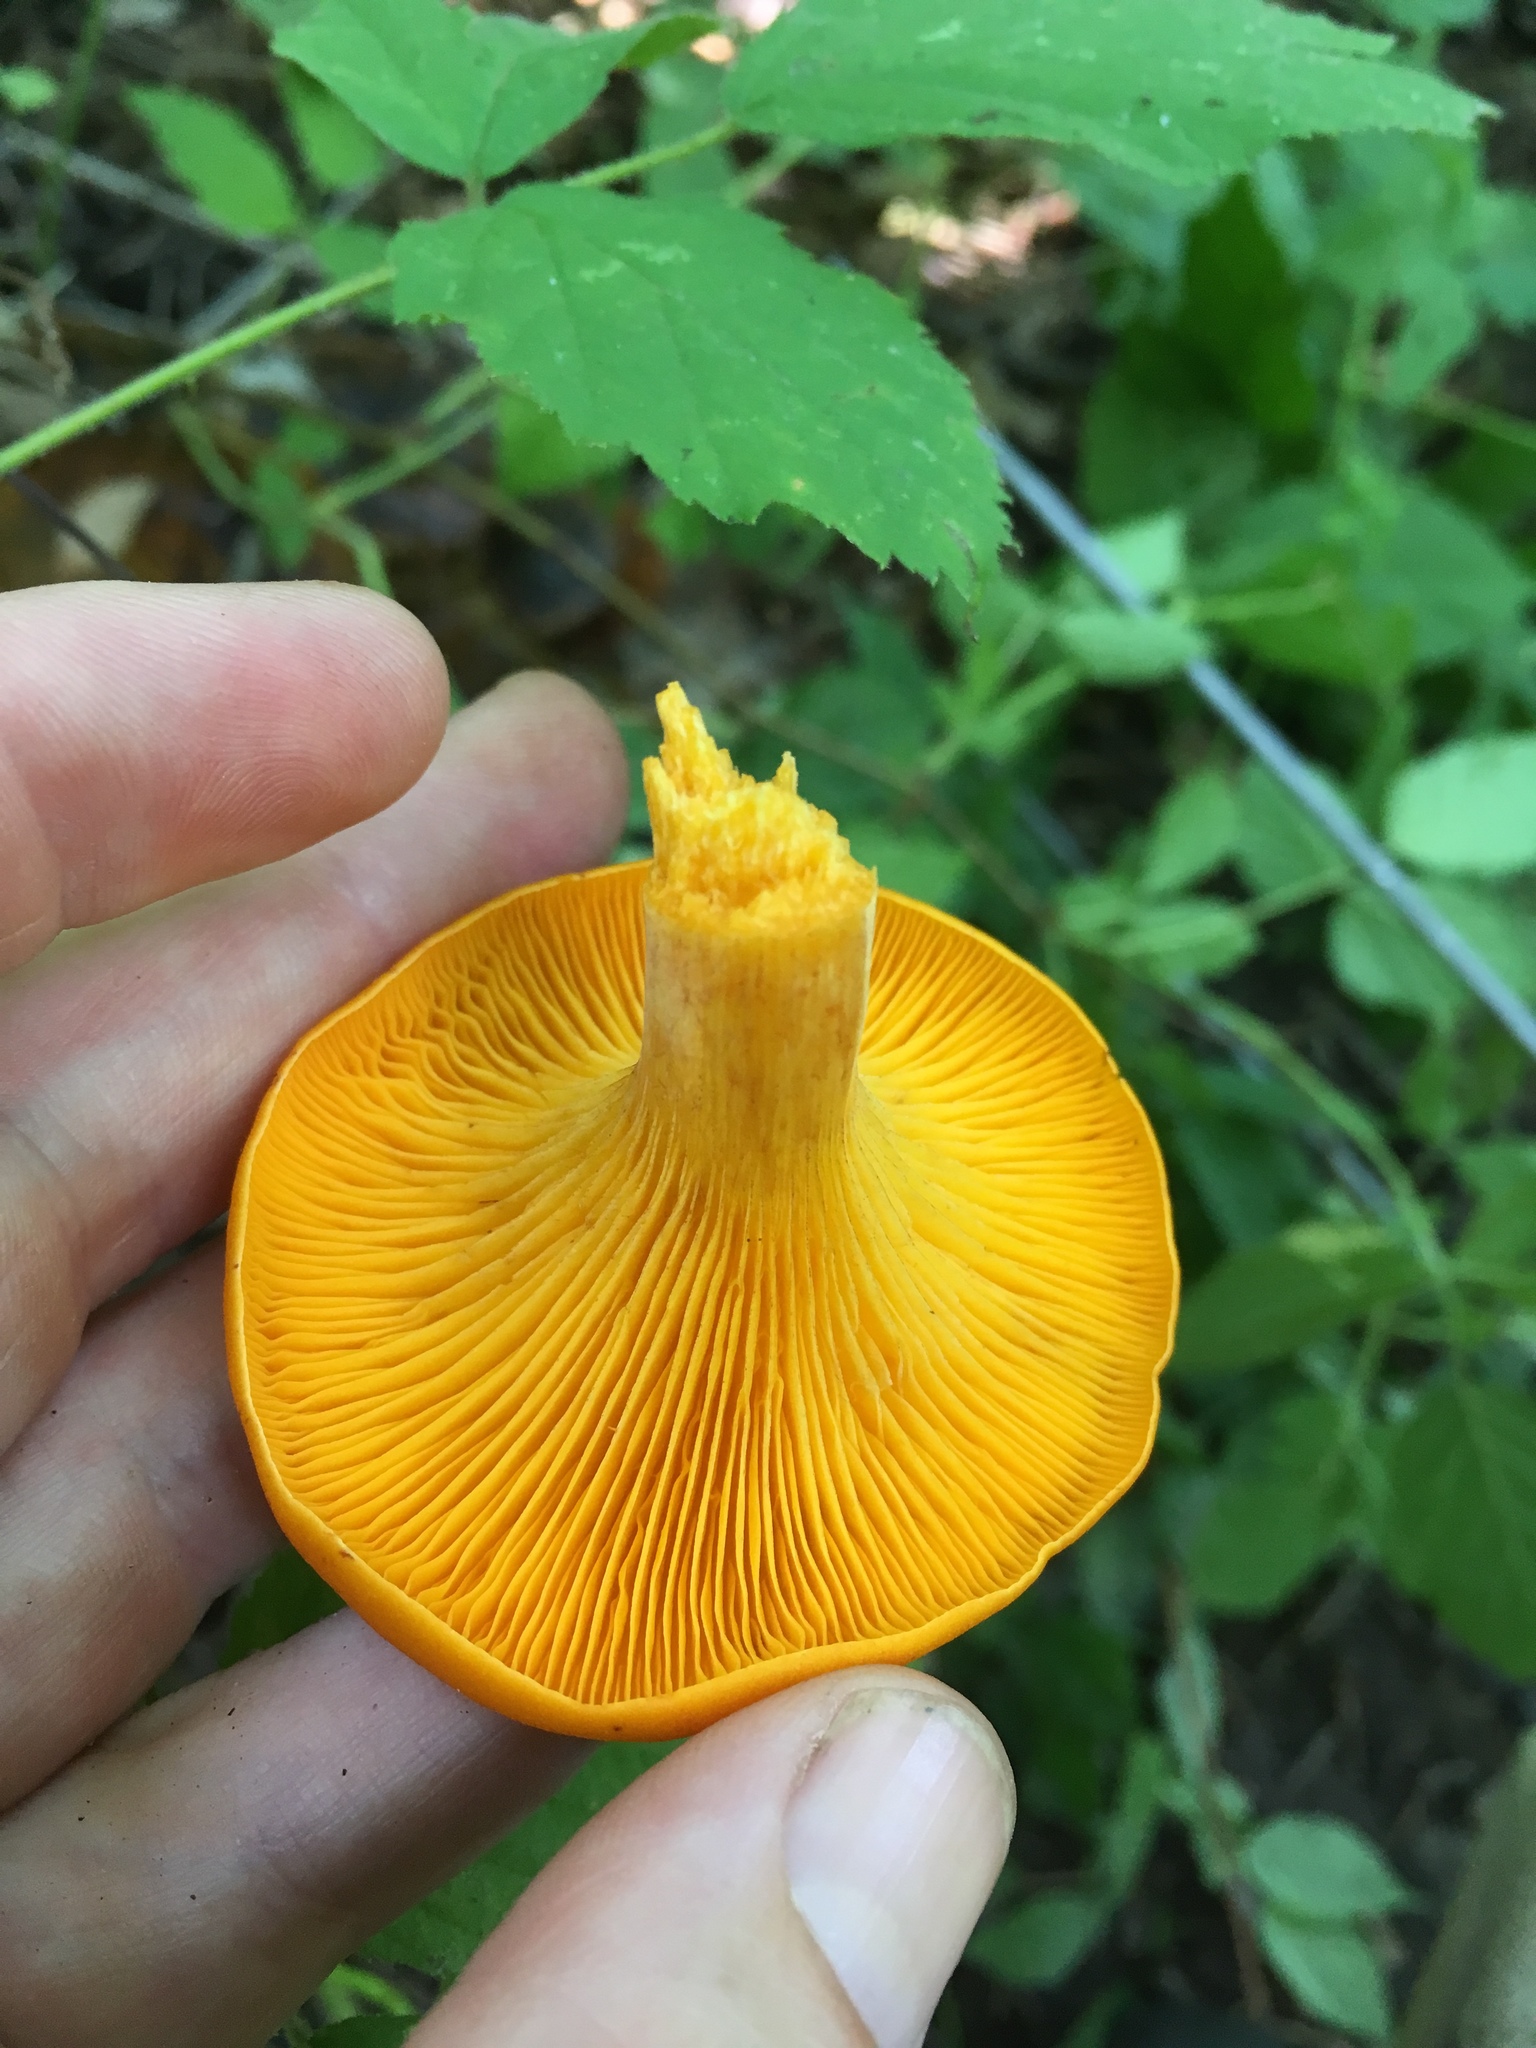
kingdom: Fungi
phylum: Basidiomycota
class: Agaricomycetes
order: Agaricales
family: Omphalotaceae
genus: Omphalotus
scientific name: Omphalotus illudens
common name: Jack o lantern
